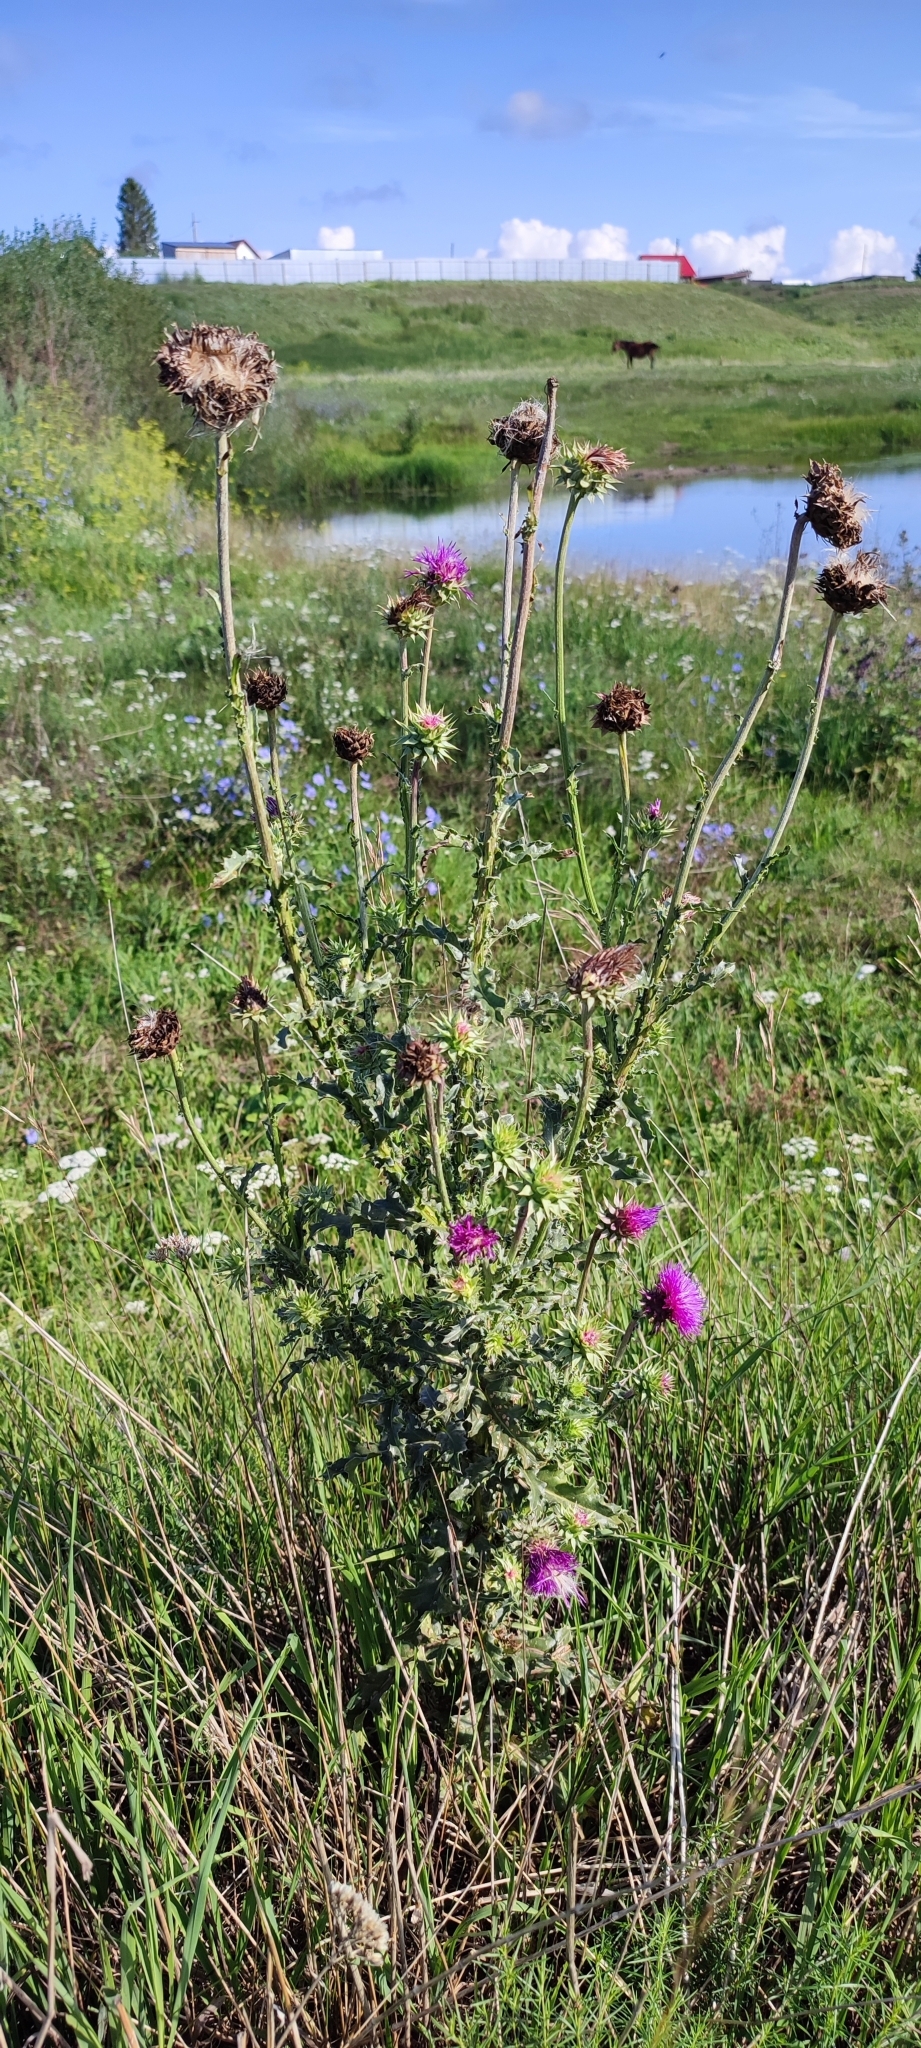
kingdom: Plantae
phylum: Tracheophyta
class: Magnoliopsida
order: Asterales
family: Asteraceae
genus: Carduus
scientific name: Carduus nutans
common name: Musk thistle
